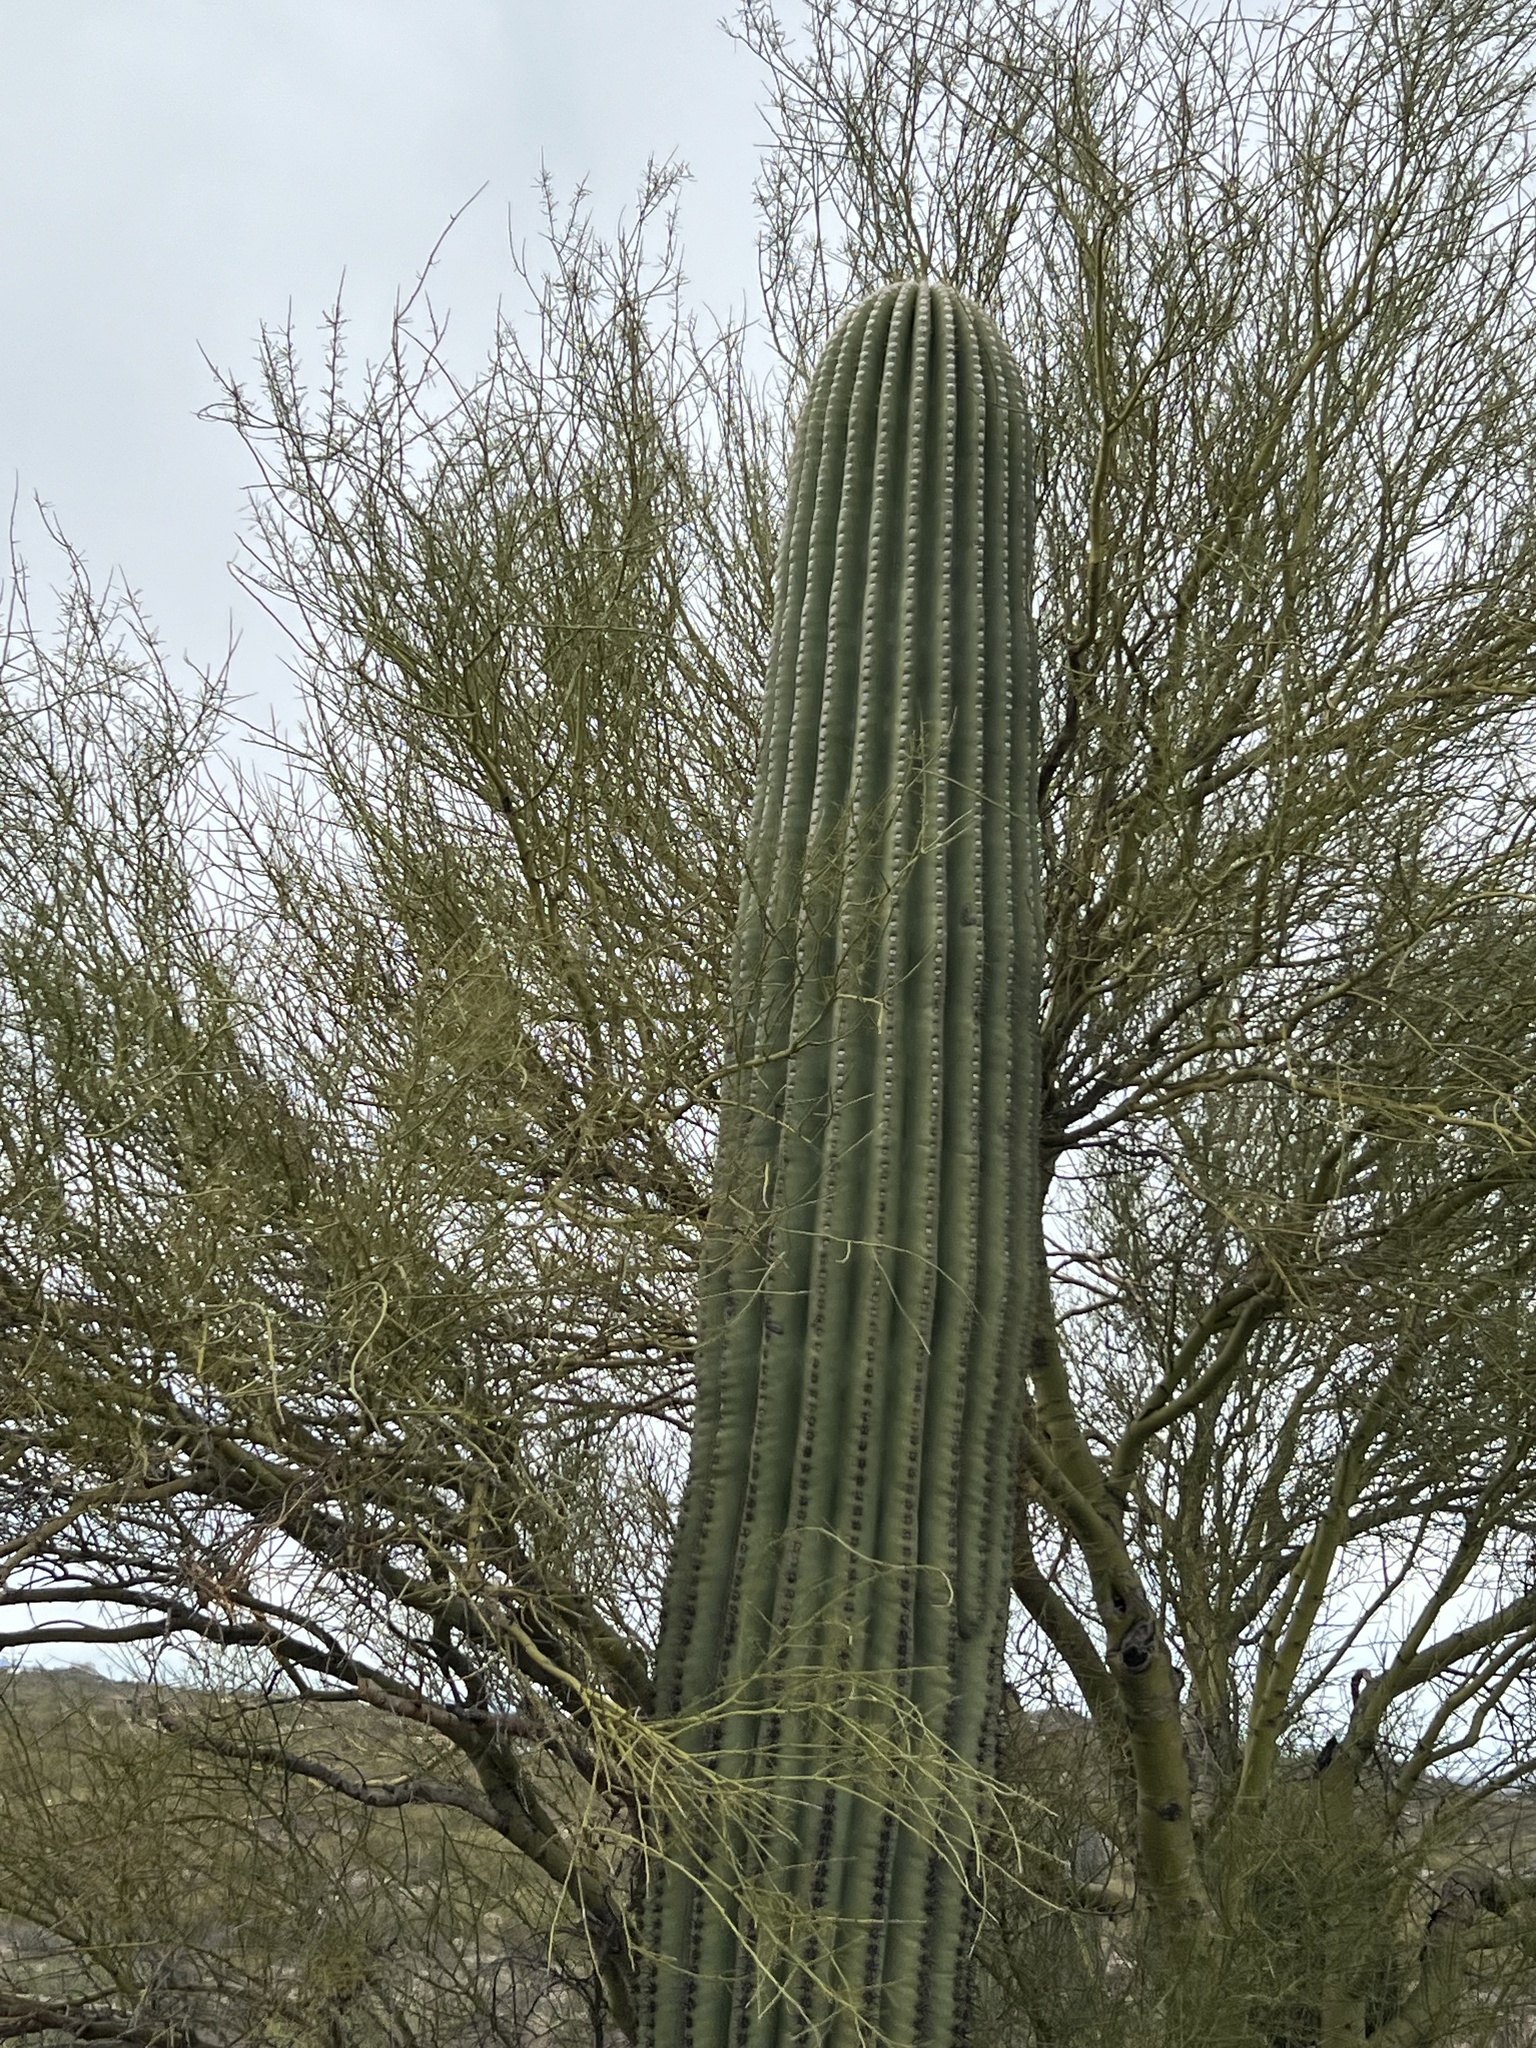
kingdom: Plantae
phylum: Tracheophyta
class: Magnoliopsida
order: Caryophyllales
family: Cactaceae
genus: Carnegiea
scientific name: Carnegiea gigantea
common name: Saguaro
